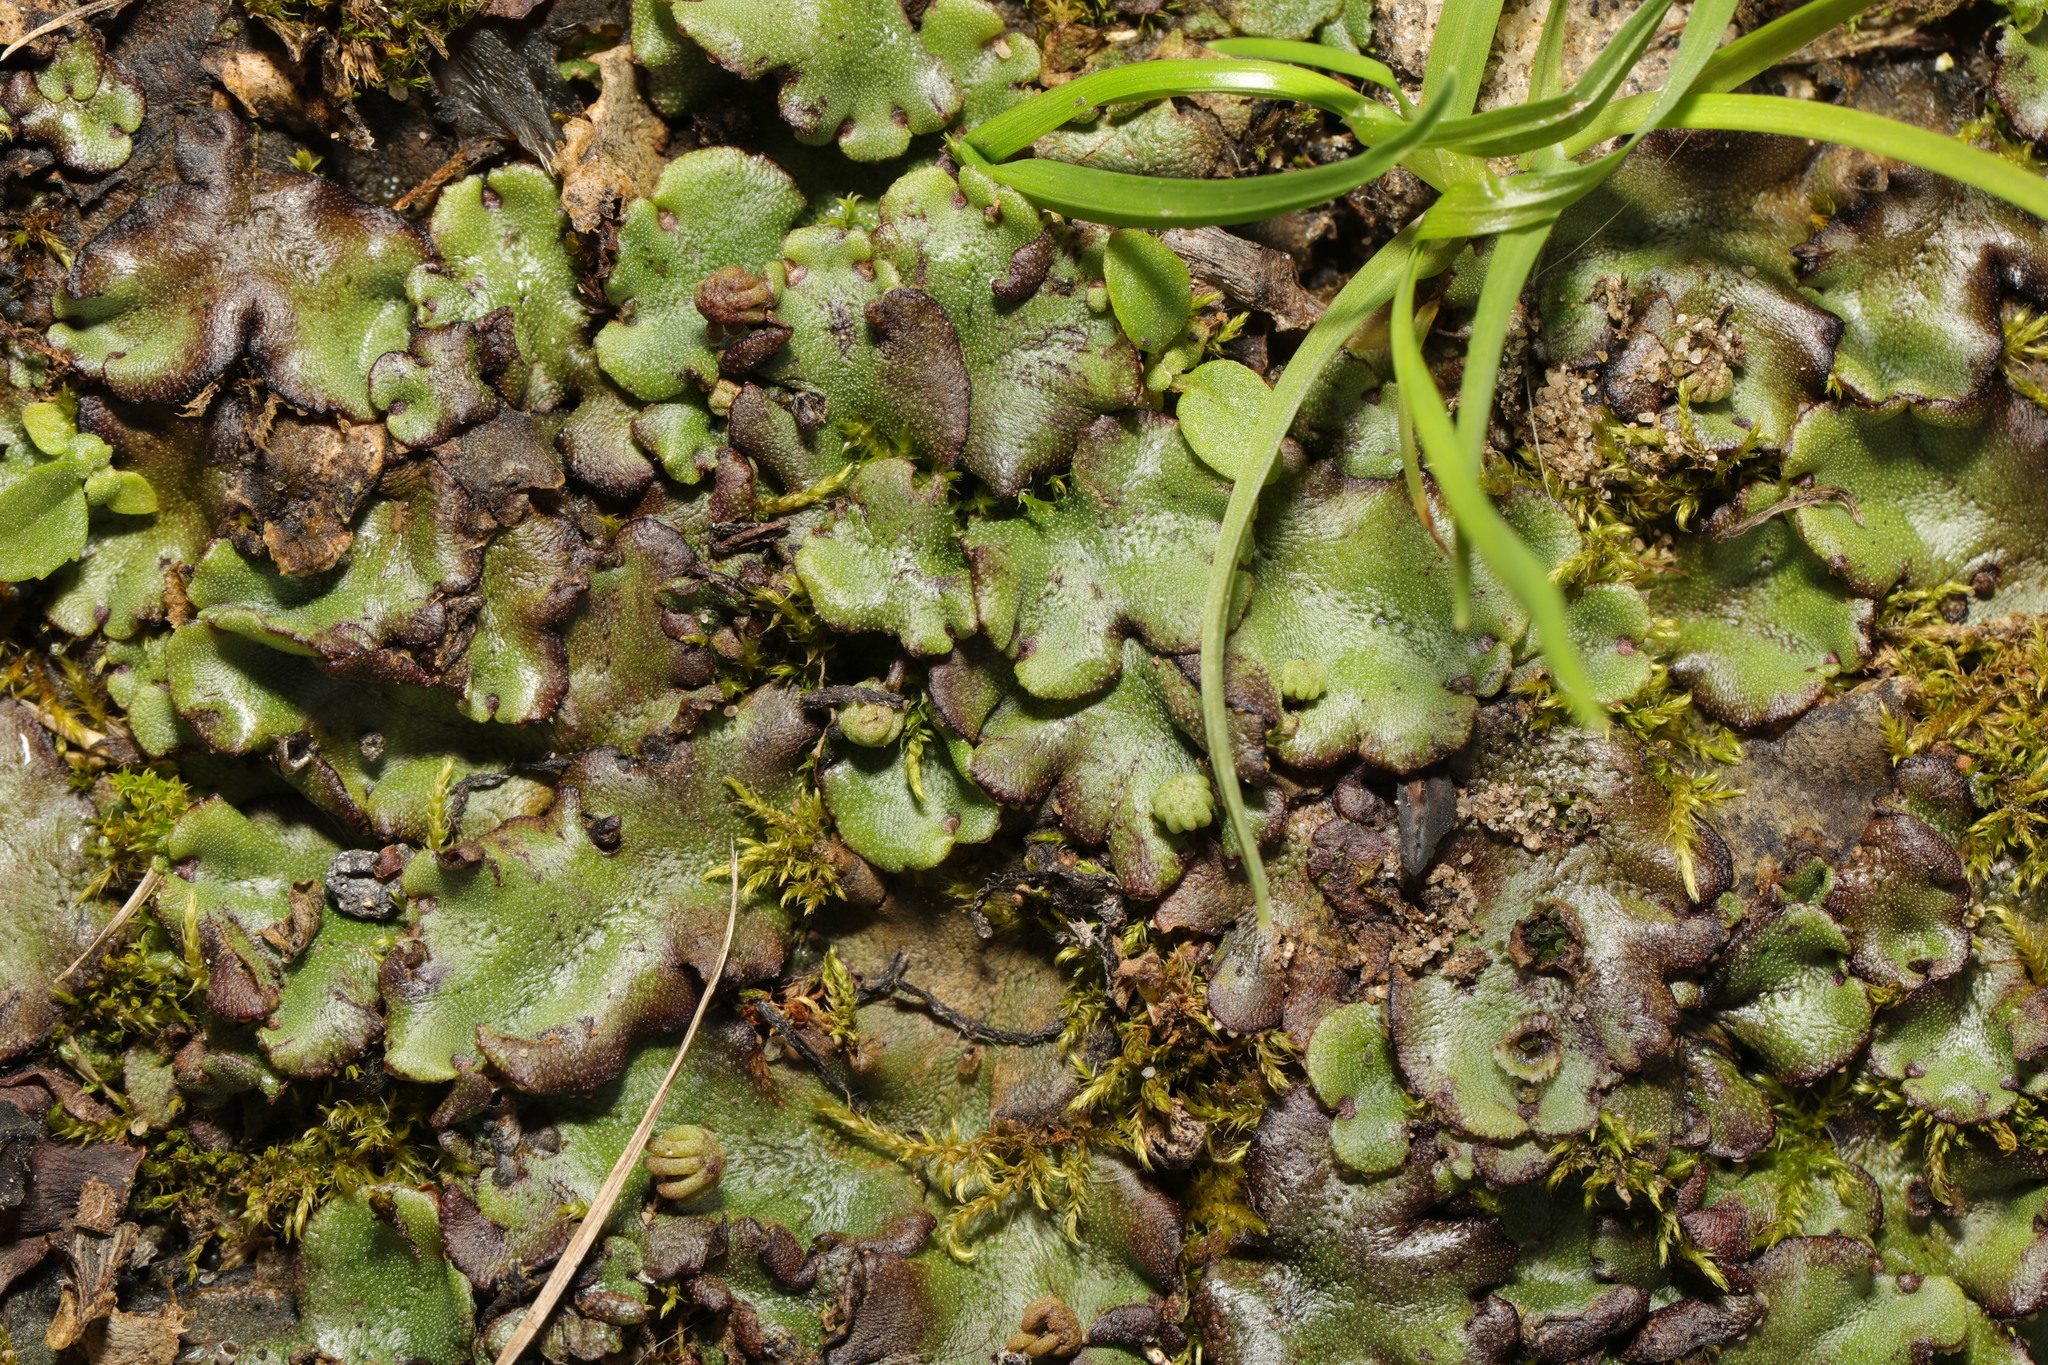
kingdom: Plantae
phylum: Marchantiophyta
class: Marchantiopsida
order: Marchantiales
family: Marchantiaceae
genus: Marchantia
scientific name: Marchantia polymorpha
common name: Common liverwort
